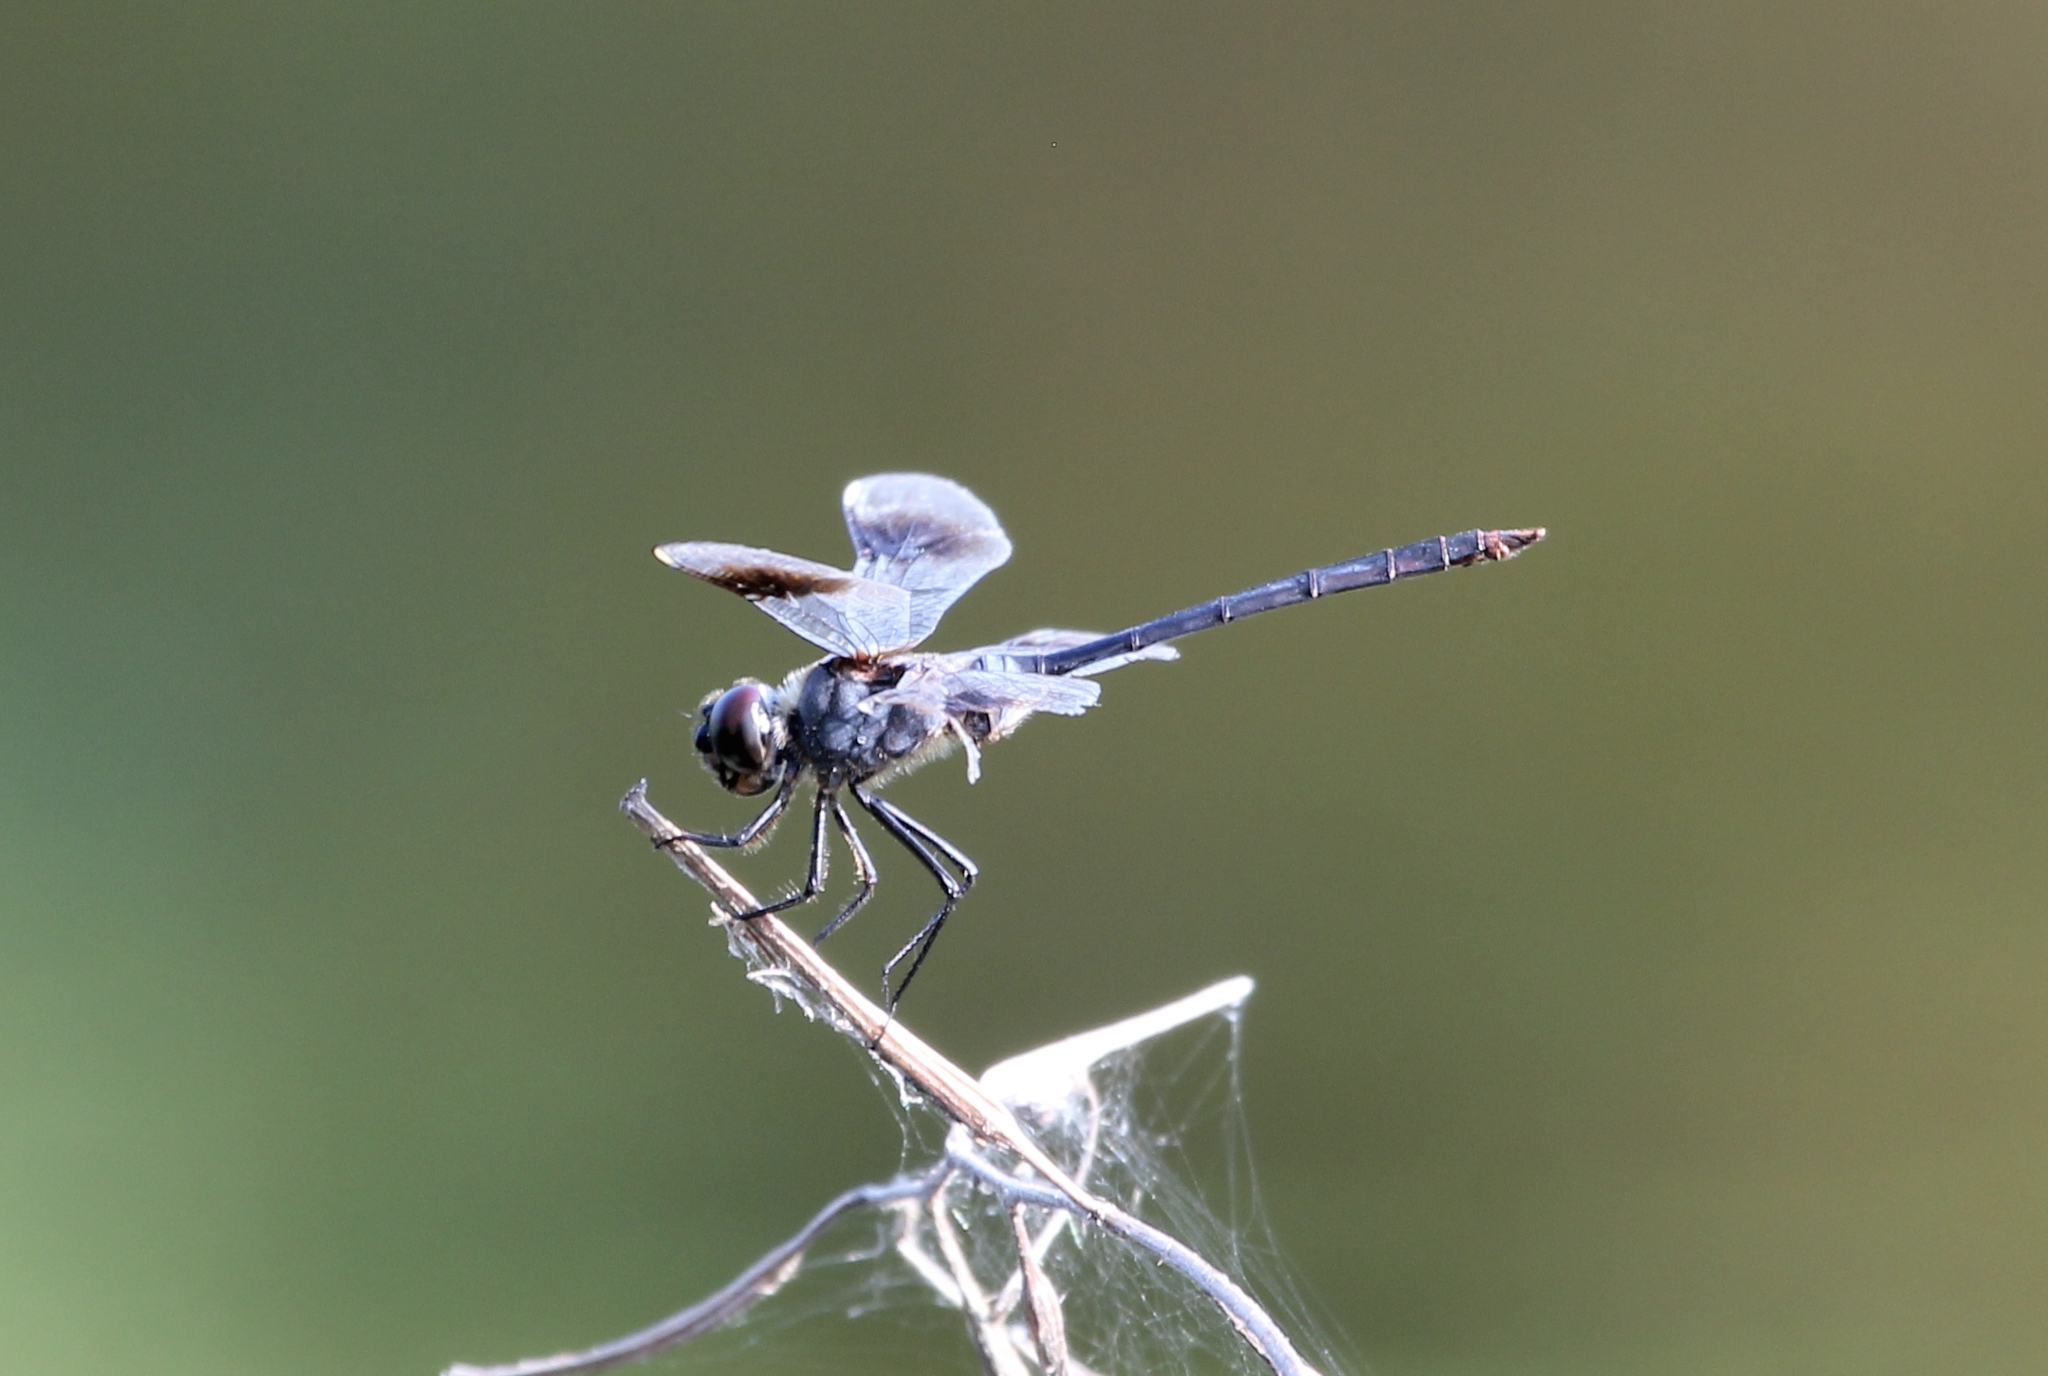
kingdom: Animalia
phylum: Arthropoda
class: Insecta
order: Odonata
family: Libellulidae
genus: Brachymesia
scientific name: Brachymesia gravida
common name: Four-spotted pennant
